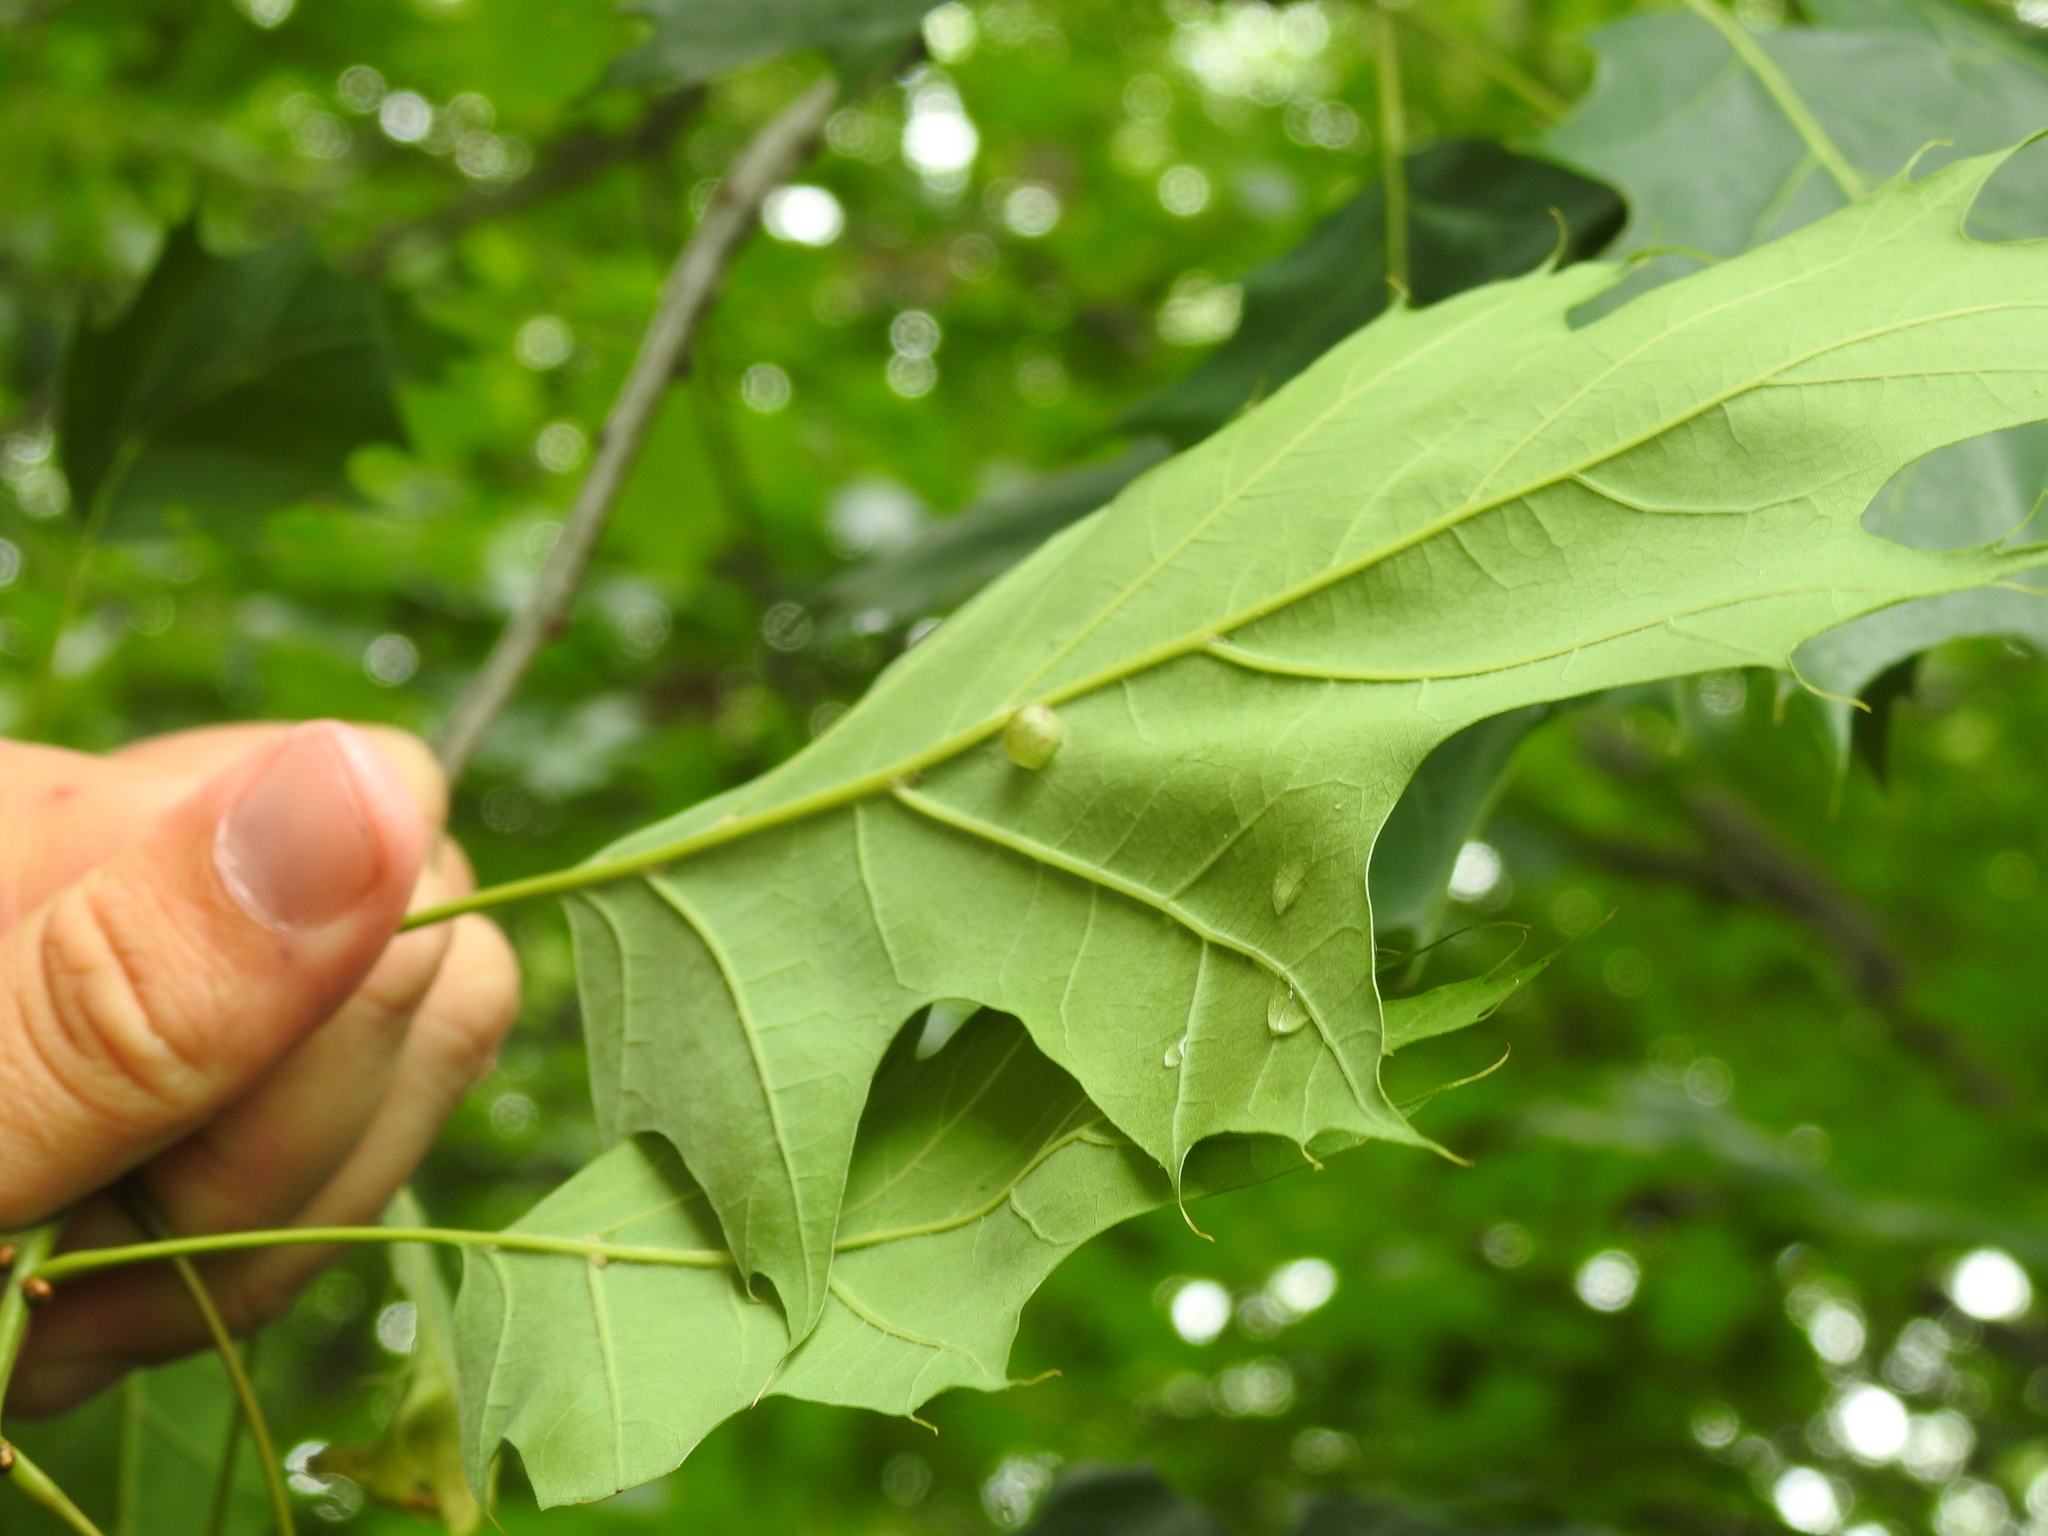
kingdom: Animalia
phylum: Arthropoda
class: Insecta
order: Hymenoptera
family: Cynipidae
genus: Dryocosmus
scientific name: Dryocosmus
